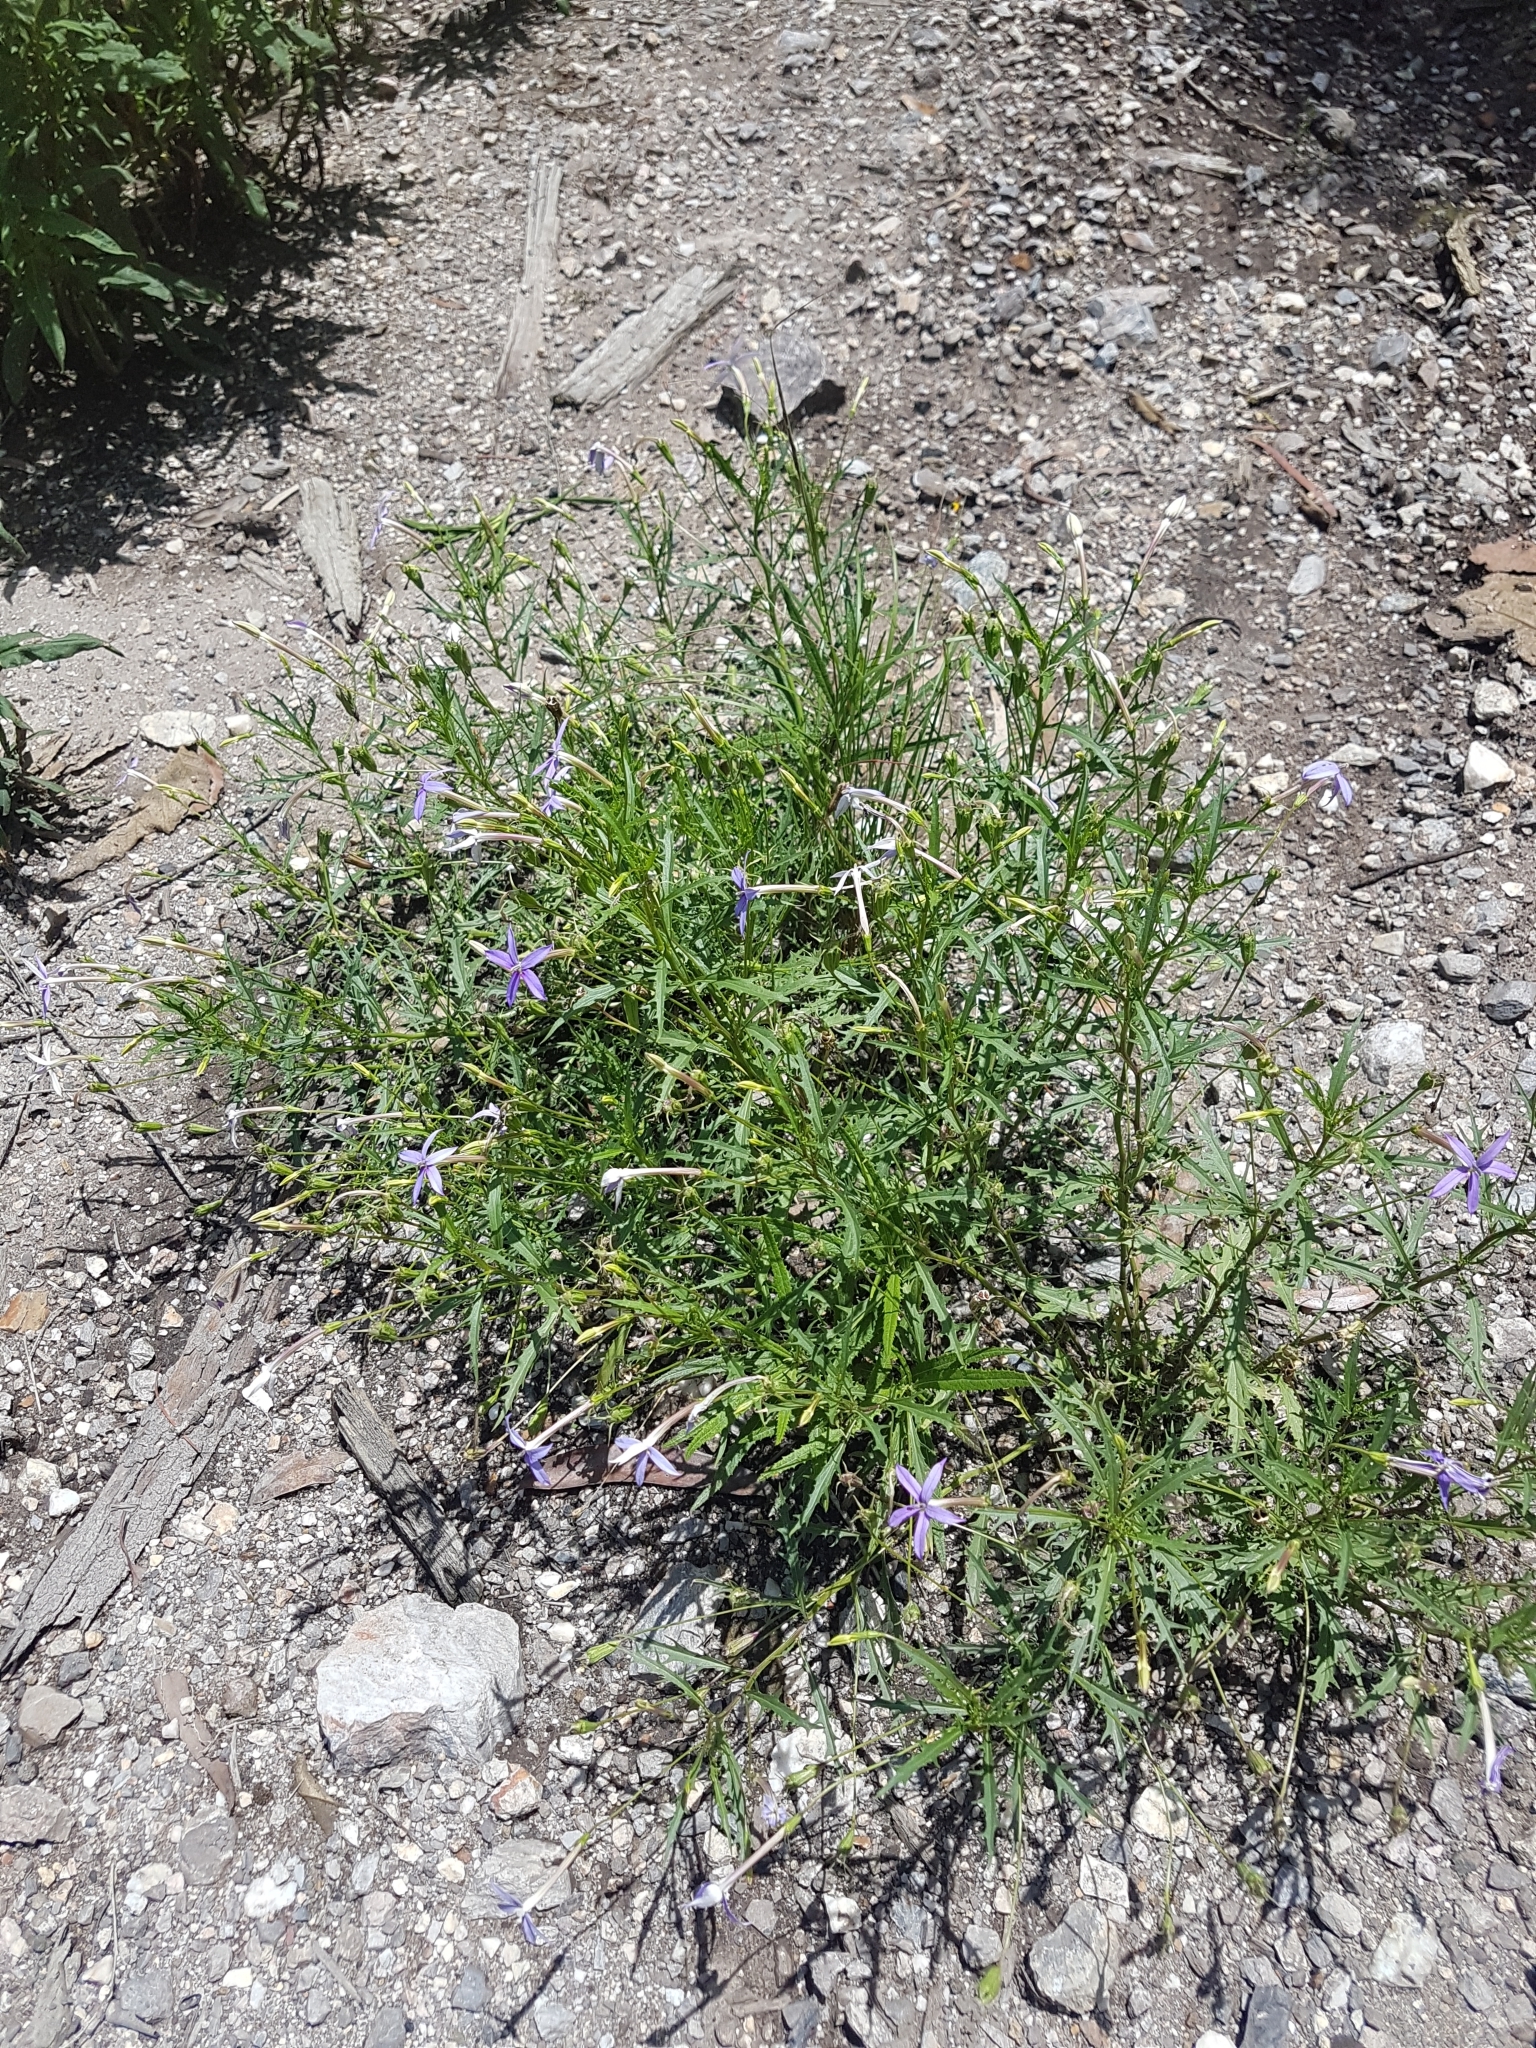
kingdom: Plantae
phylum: Tracheophyta
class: Magnoliopsida
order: Asterales
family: Campanulaceae
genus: Lithotoma
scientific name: Lithotoma axillaris
